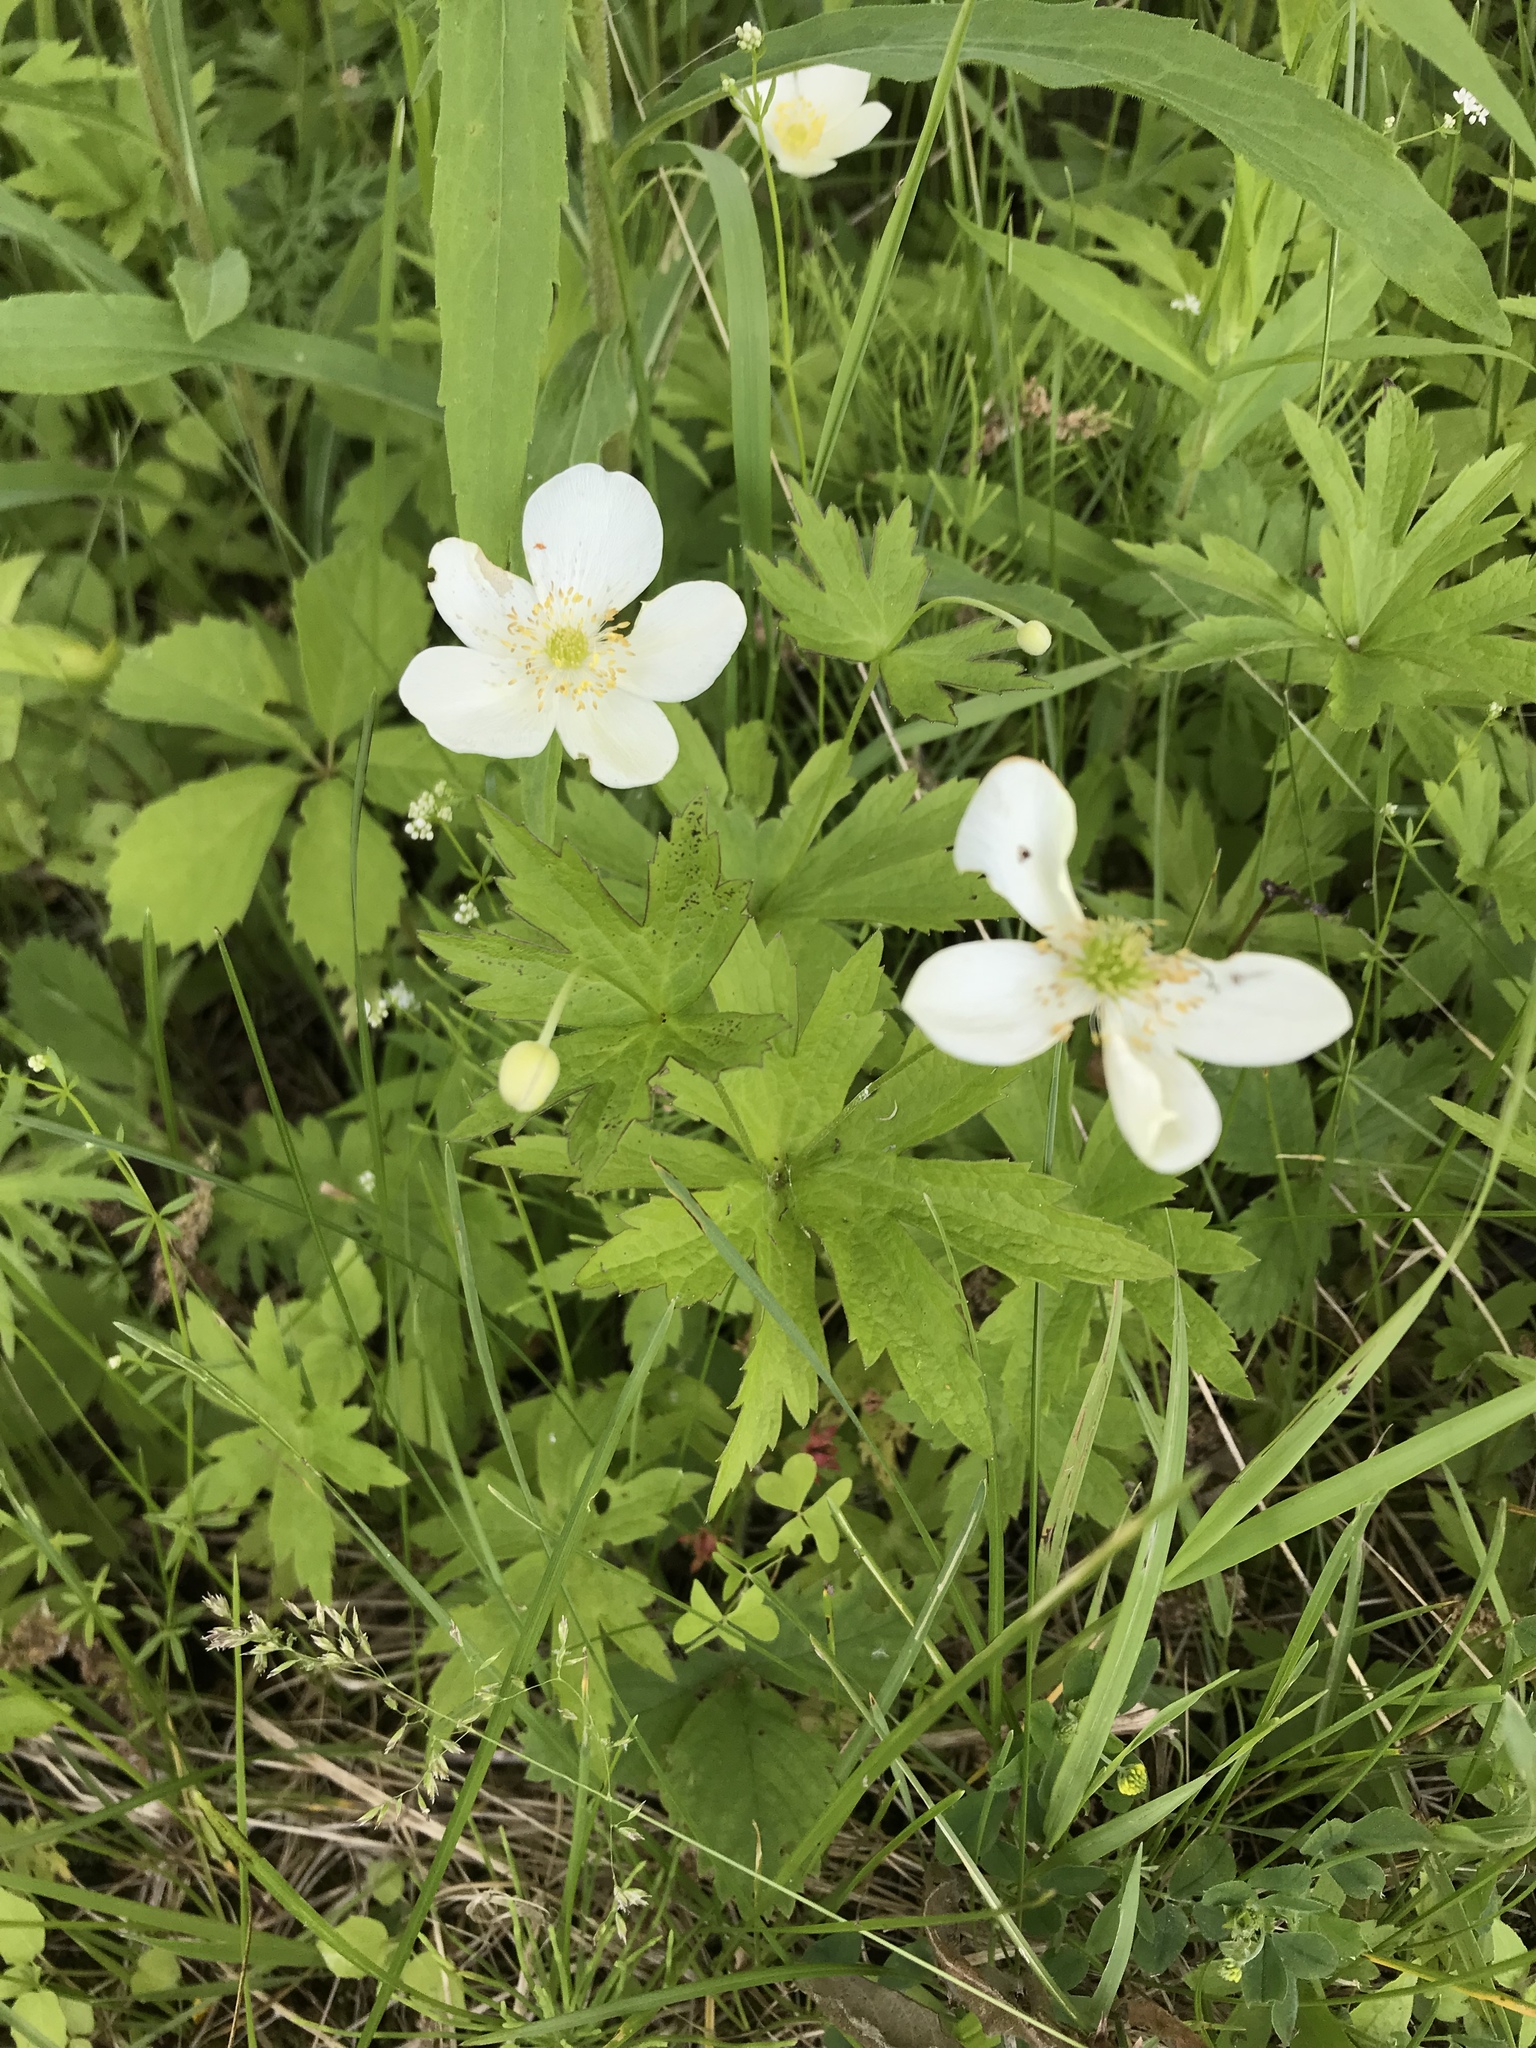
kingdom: Plantae
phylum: Tracheophyta
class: Magnoliopsida
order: Ranunculales
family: Ranunculaceae
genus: Anemonastrum
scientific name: Anemonastrum canadense
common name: Canada anemone
